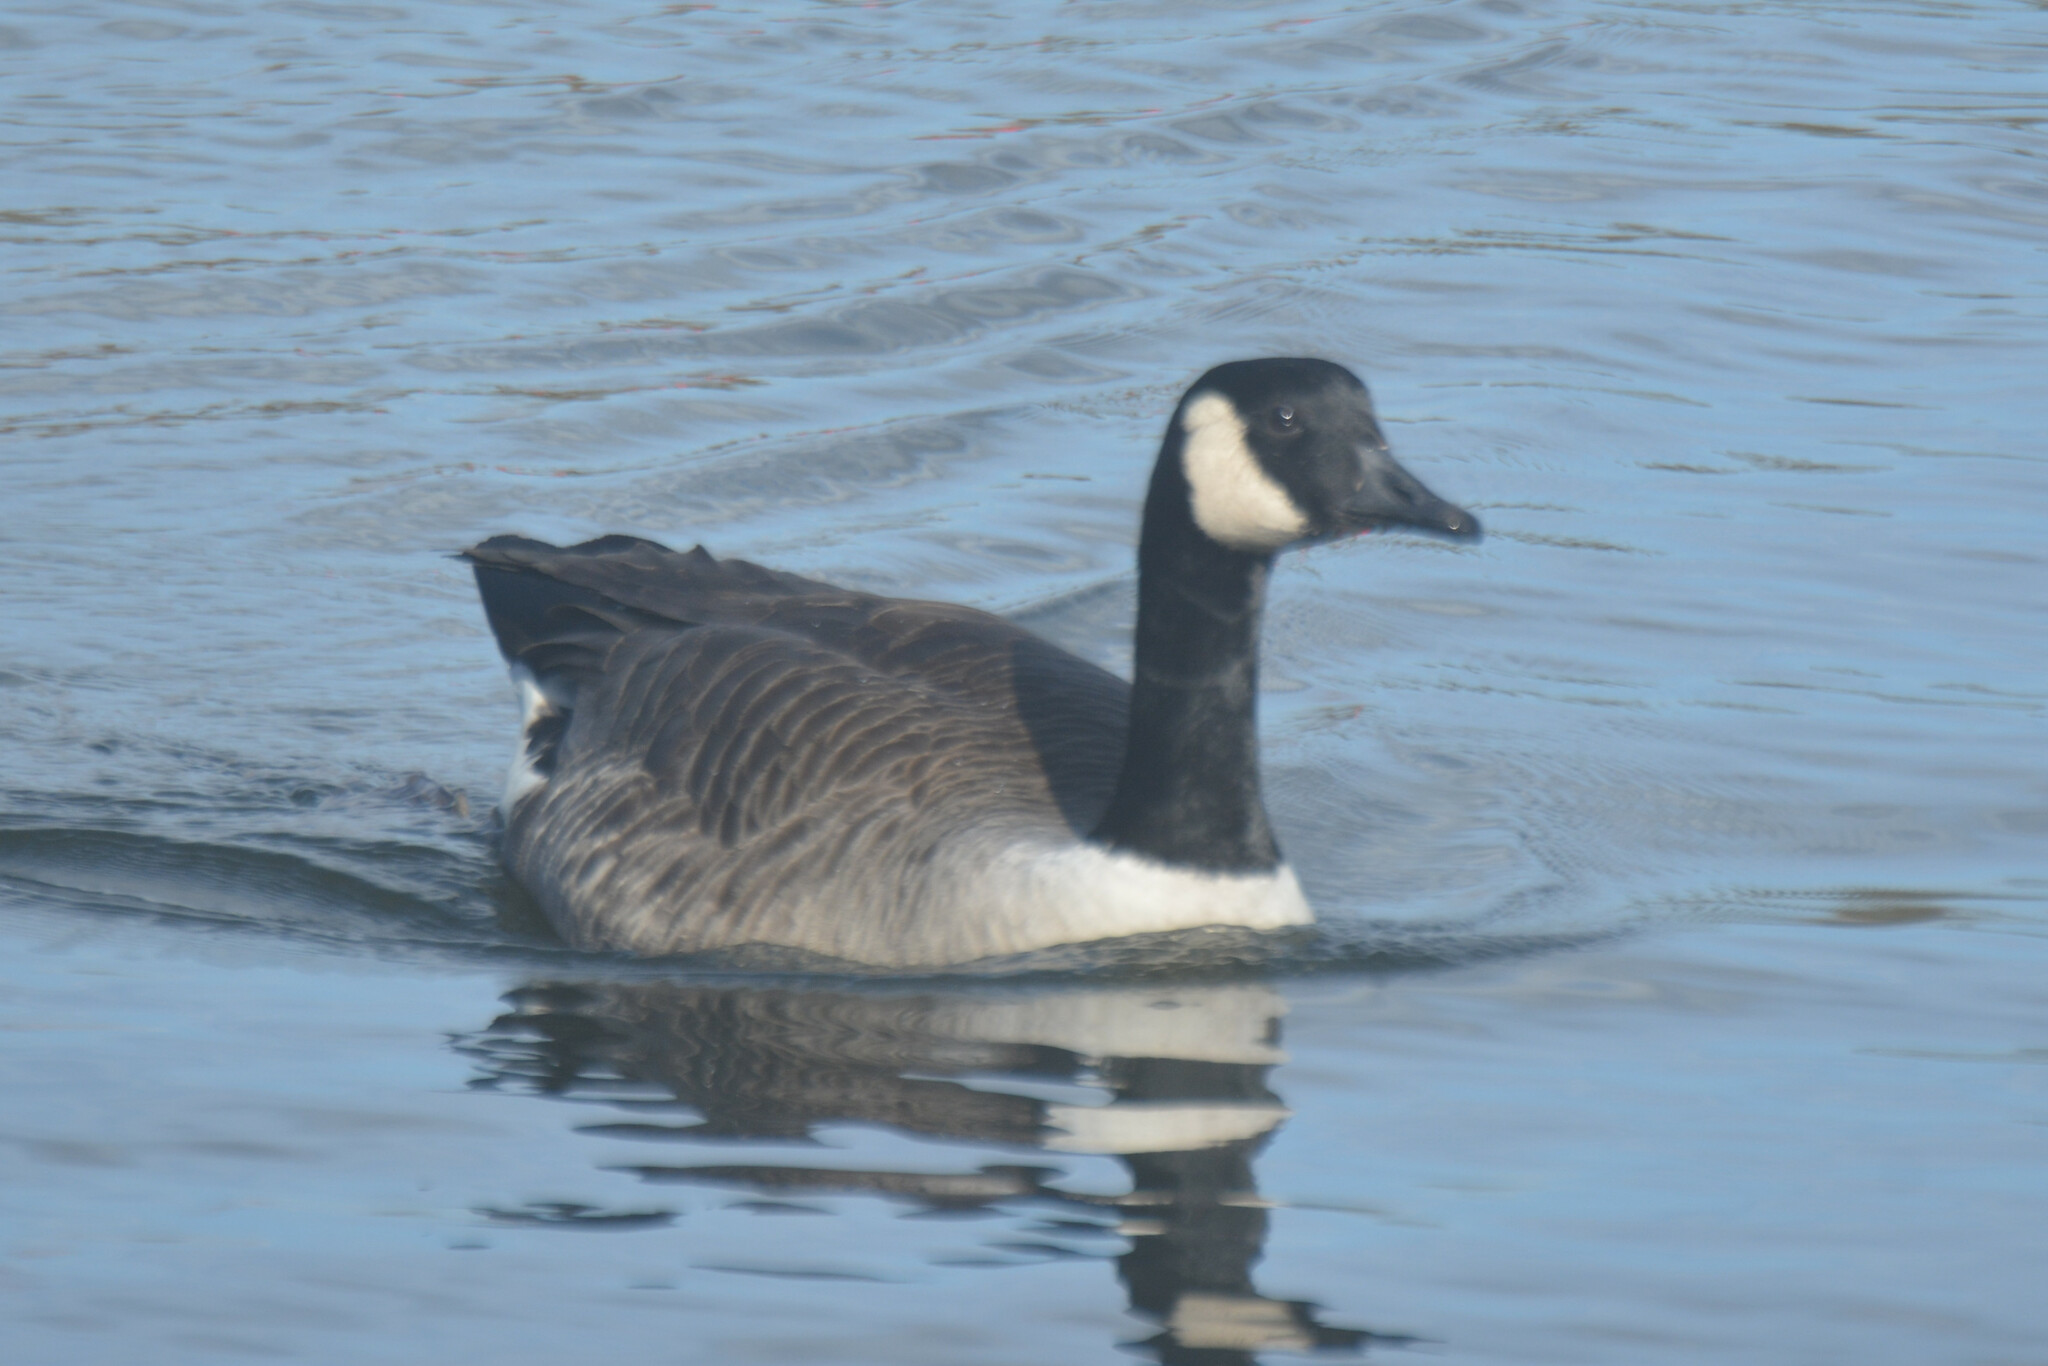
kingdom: Animalia
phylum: Chordata
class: Aves
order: Anseriformes
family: Anatidae
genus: Branta
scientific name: Branta canadensis
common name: Canada goose
